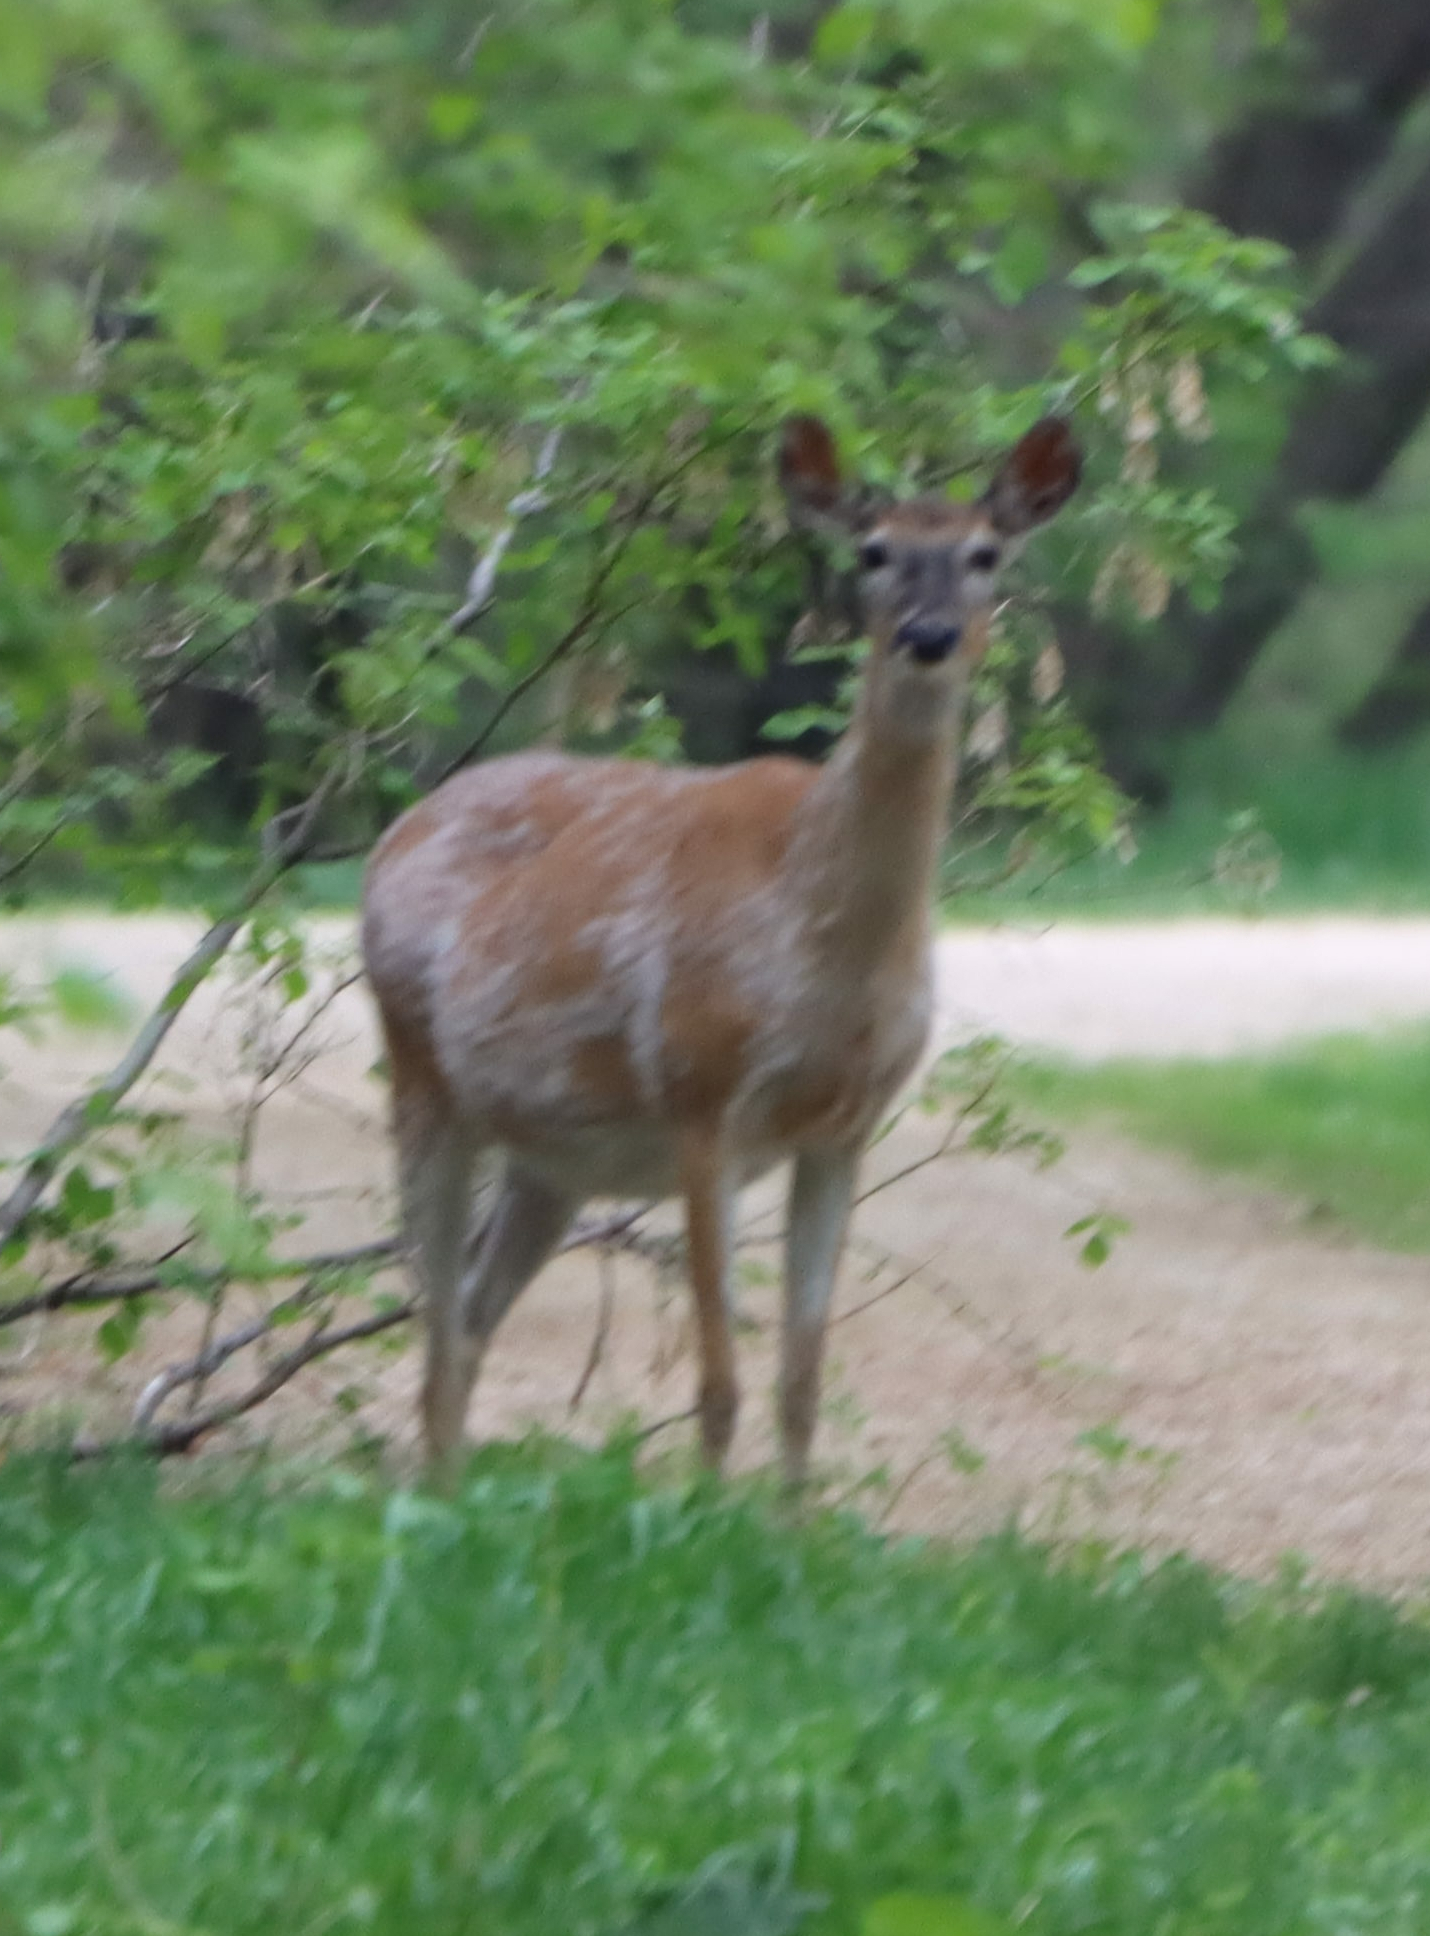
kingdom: Animalia
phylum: Chordata
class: Mammalia
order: Artiodactyla
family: Cervidae
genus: Odocoileus
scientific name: Odocoileus virginianus
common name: White-tailed deer
